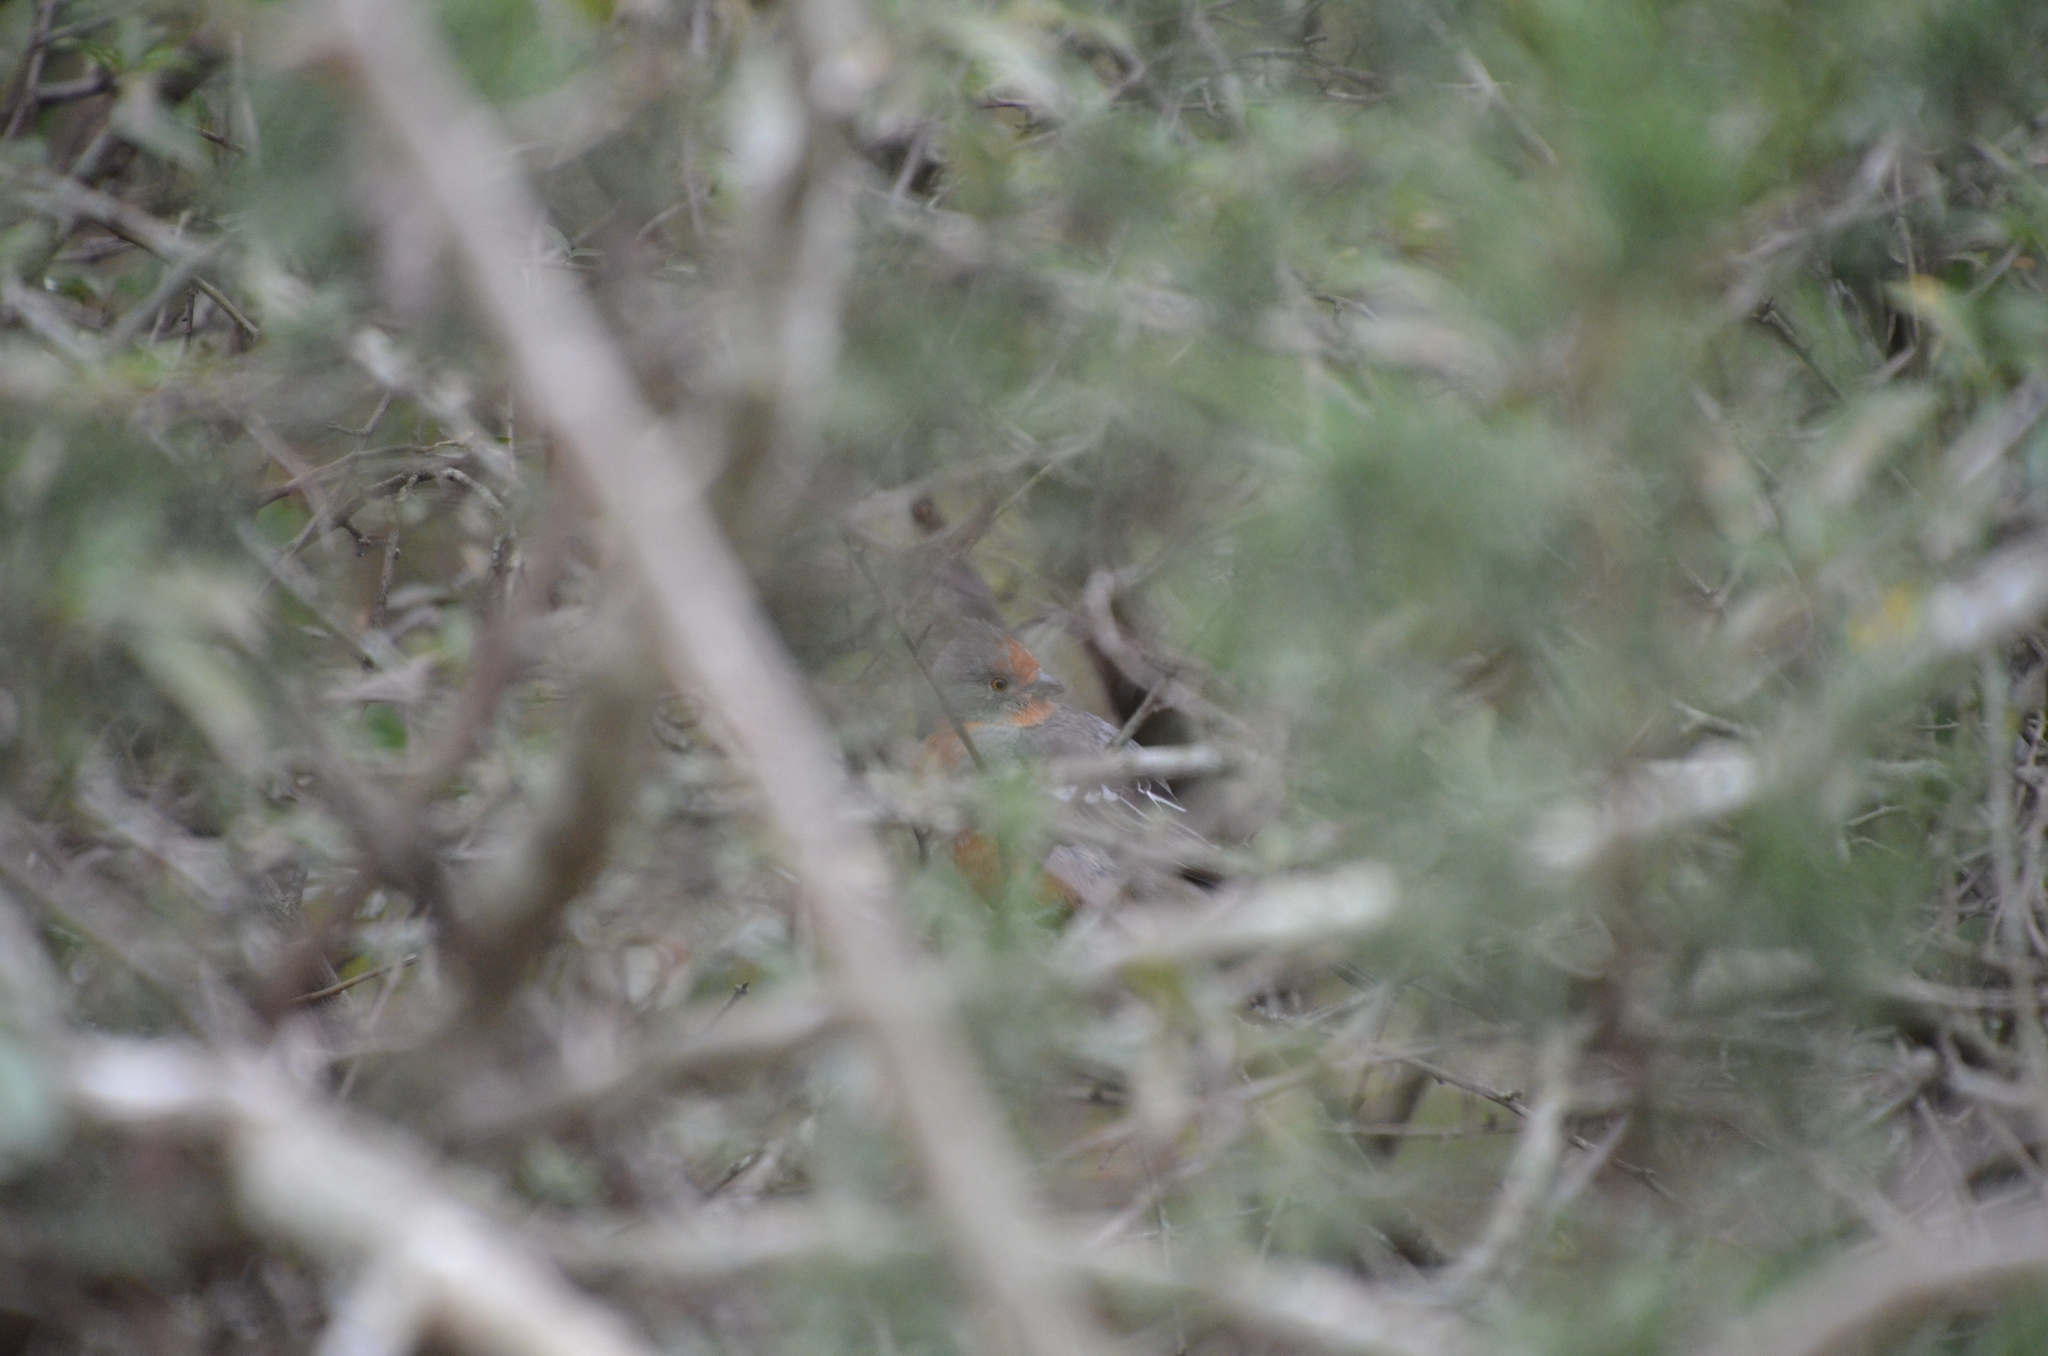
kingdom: Animalia
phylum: Chordata
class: Aves
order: Passeriformes
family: Cotingidae
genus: Phytotoma
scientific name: Phytotoma rutila
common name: White-tipped plantcutter
